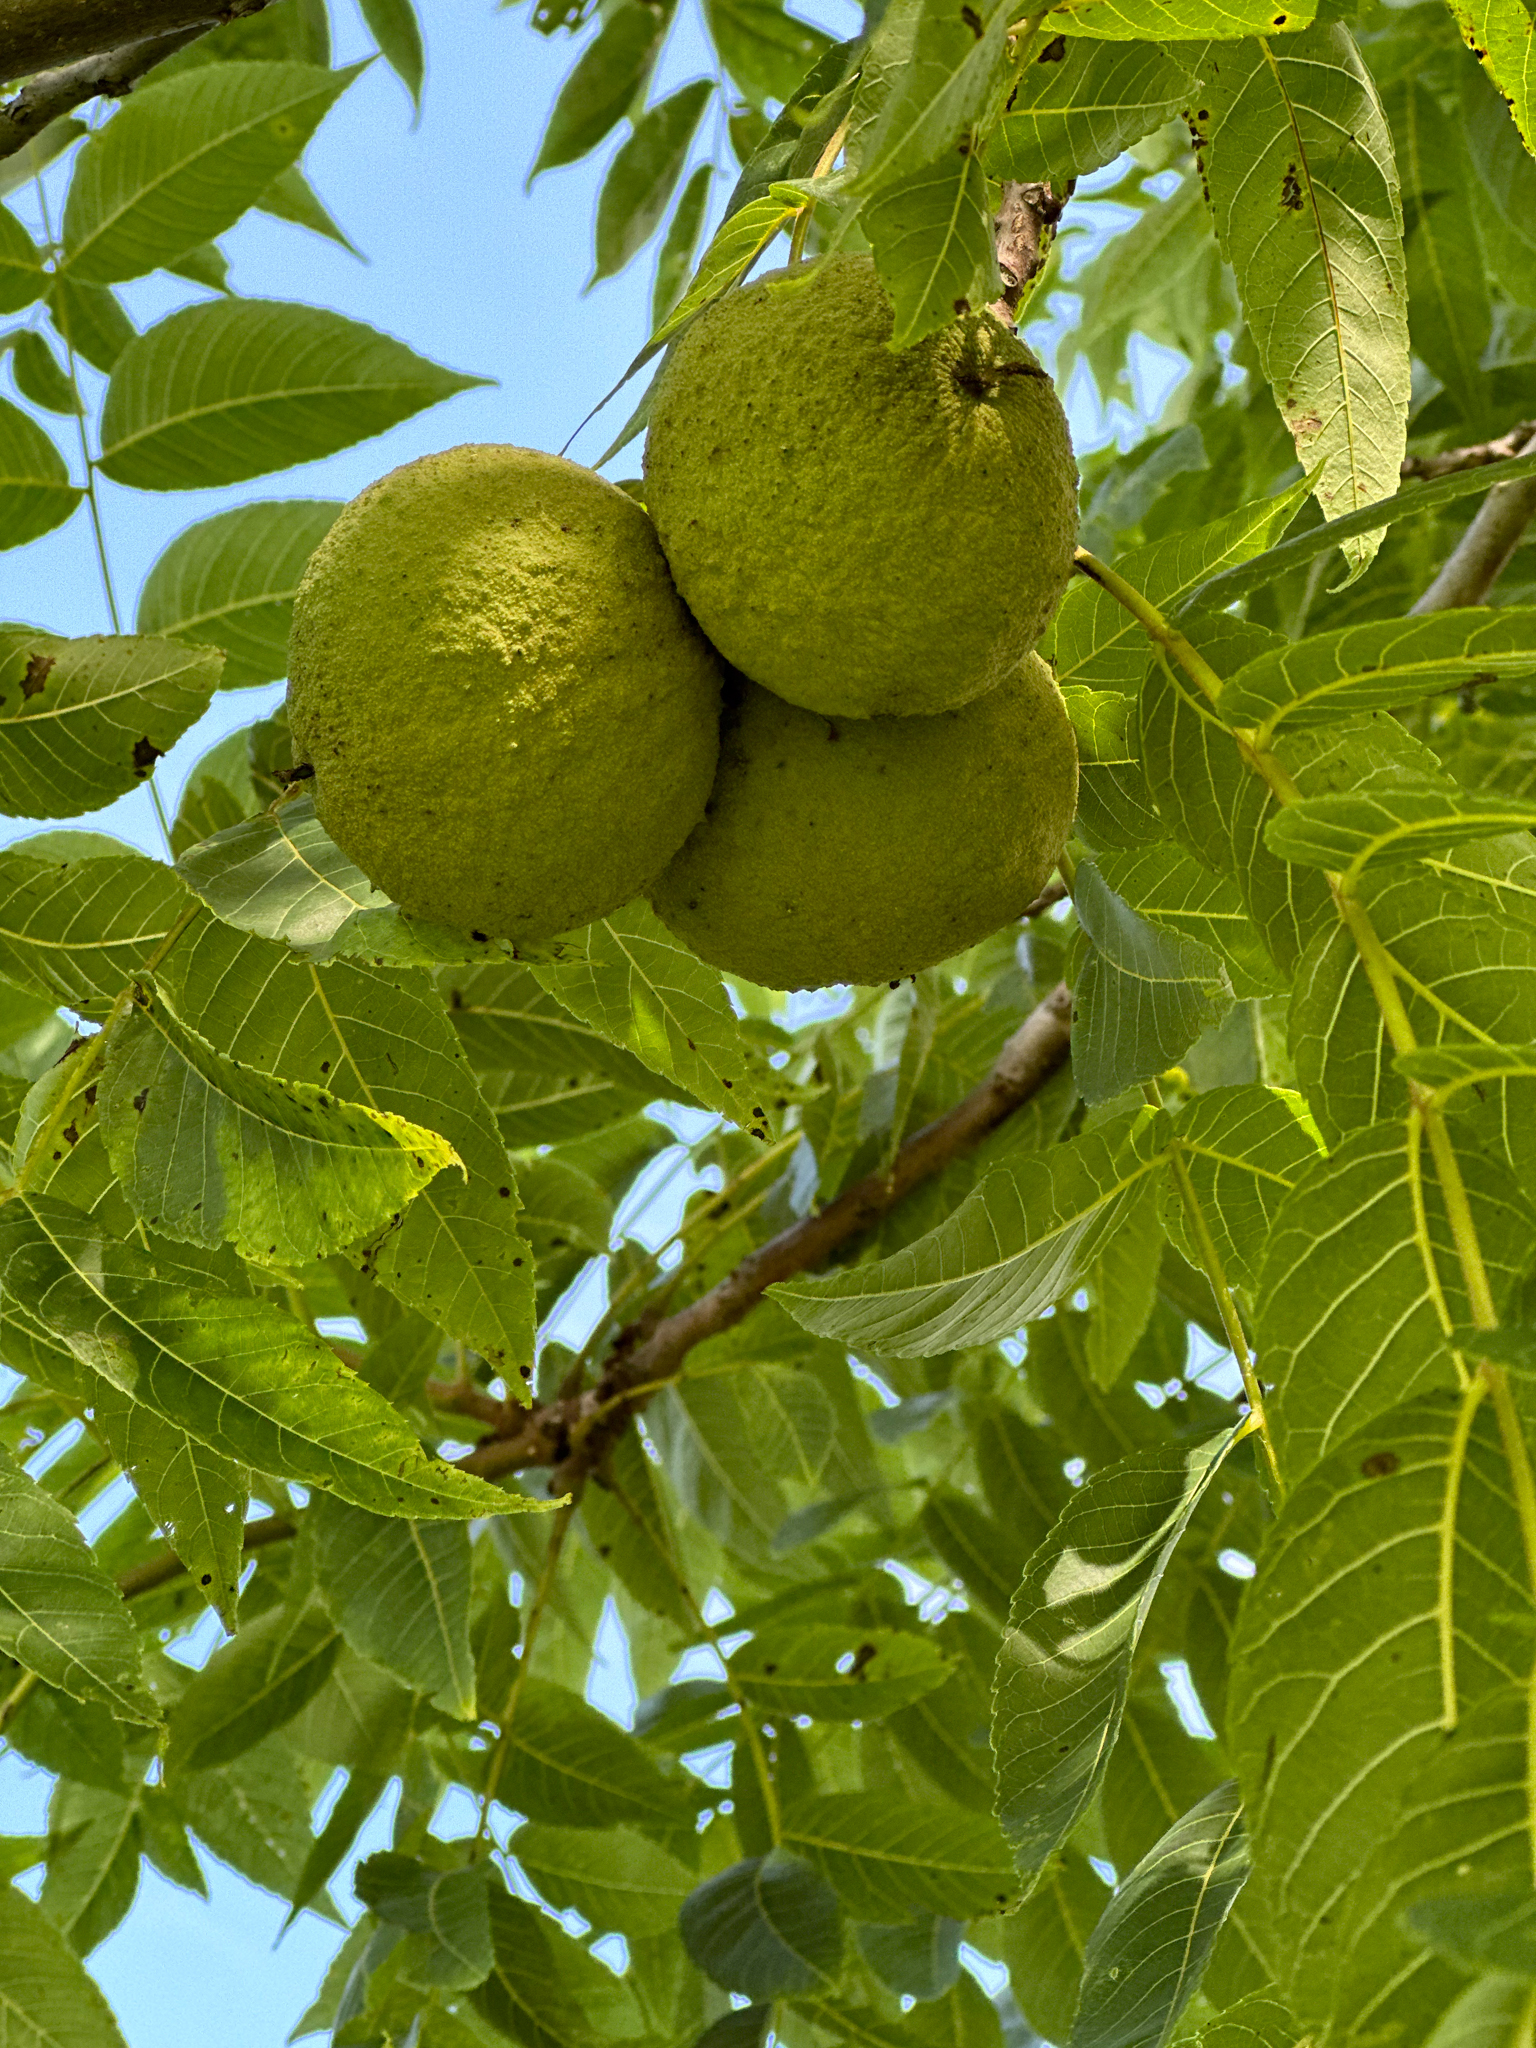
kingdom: Plantae
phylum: Tracheophyta
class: Magnoliopsida
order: Fagales
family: Juglandaceae
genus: Juglans
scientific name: Juglans nigra
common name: Black walnut
